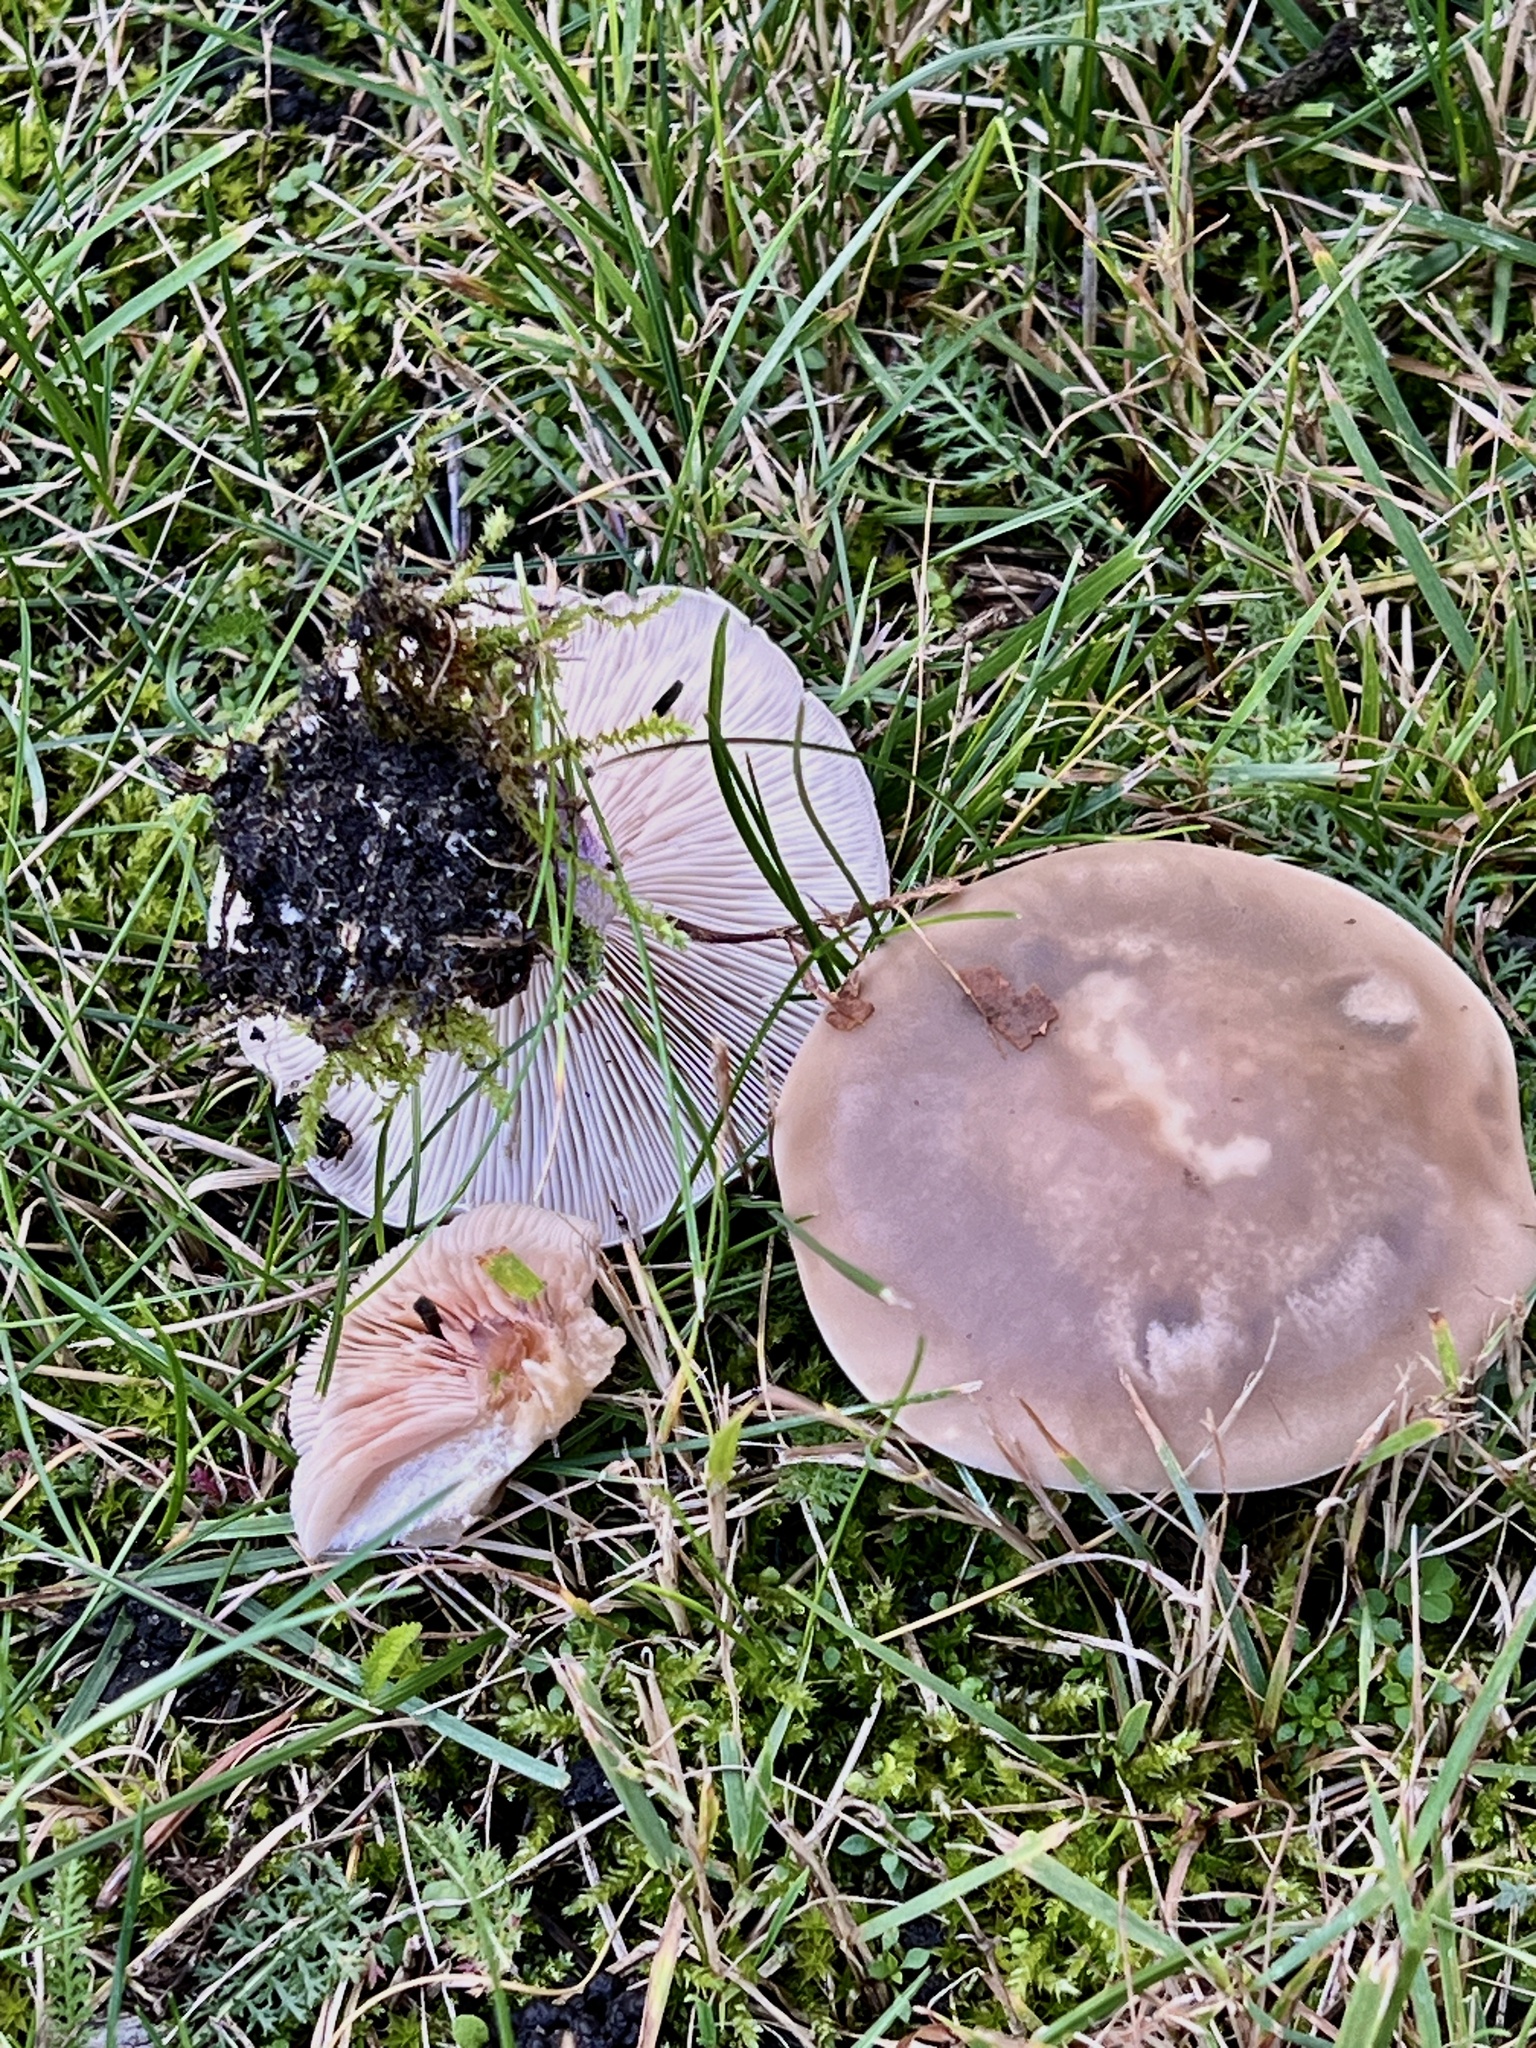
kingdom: Fungi
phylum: Basidiomycota
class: Agaricomycetes
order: Agaricales
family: Tricholomataceae
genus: Collybia
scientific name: Collybia
